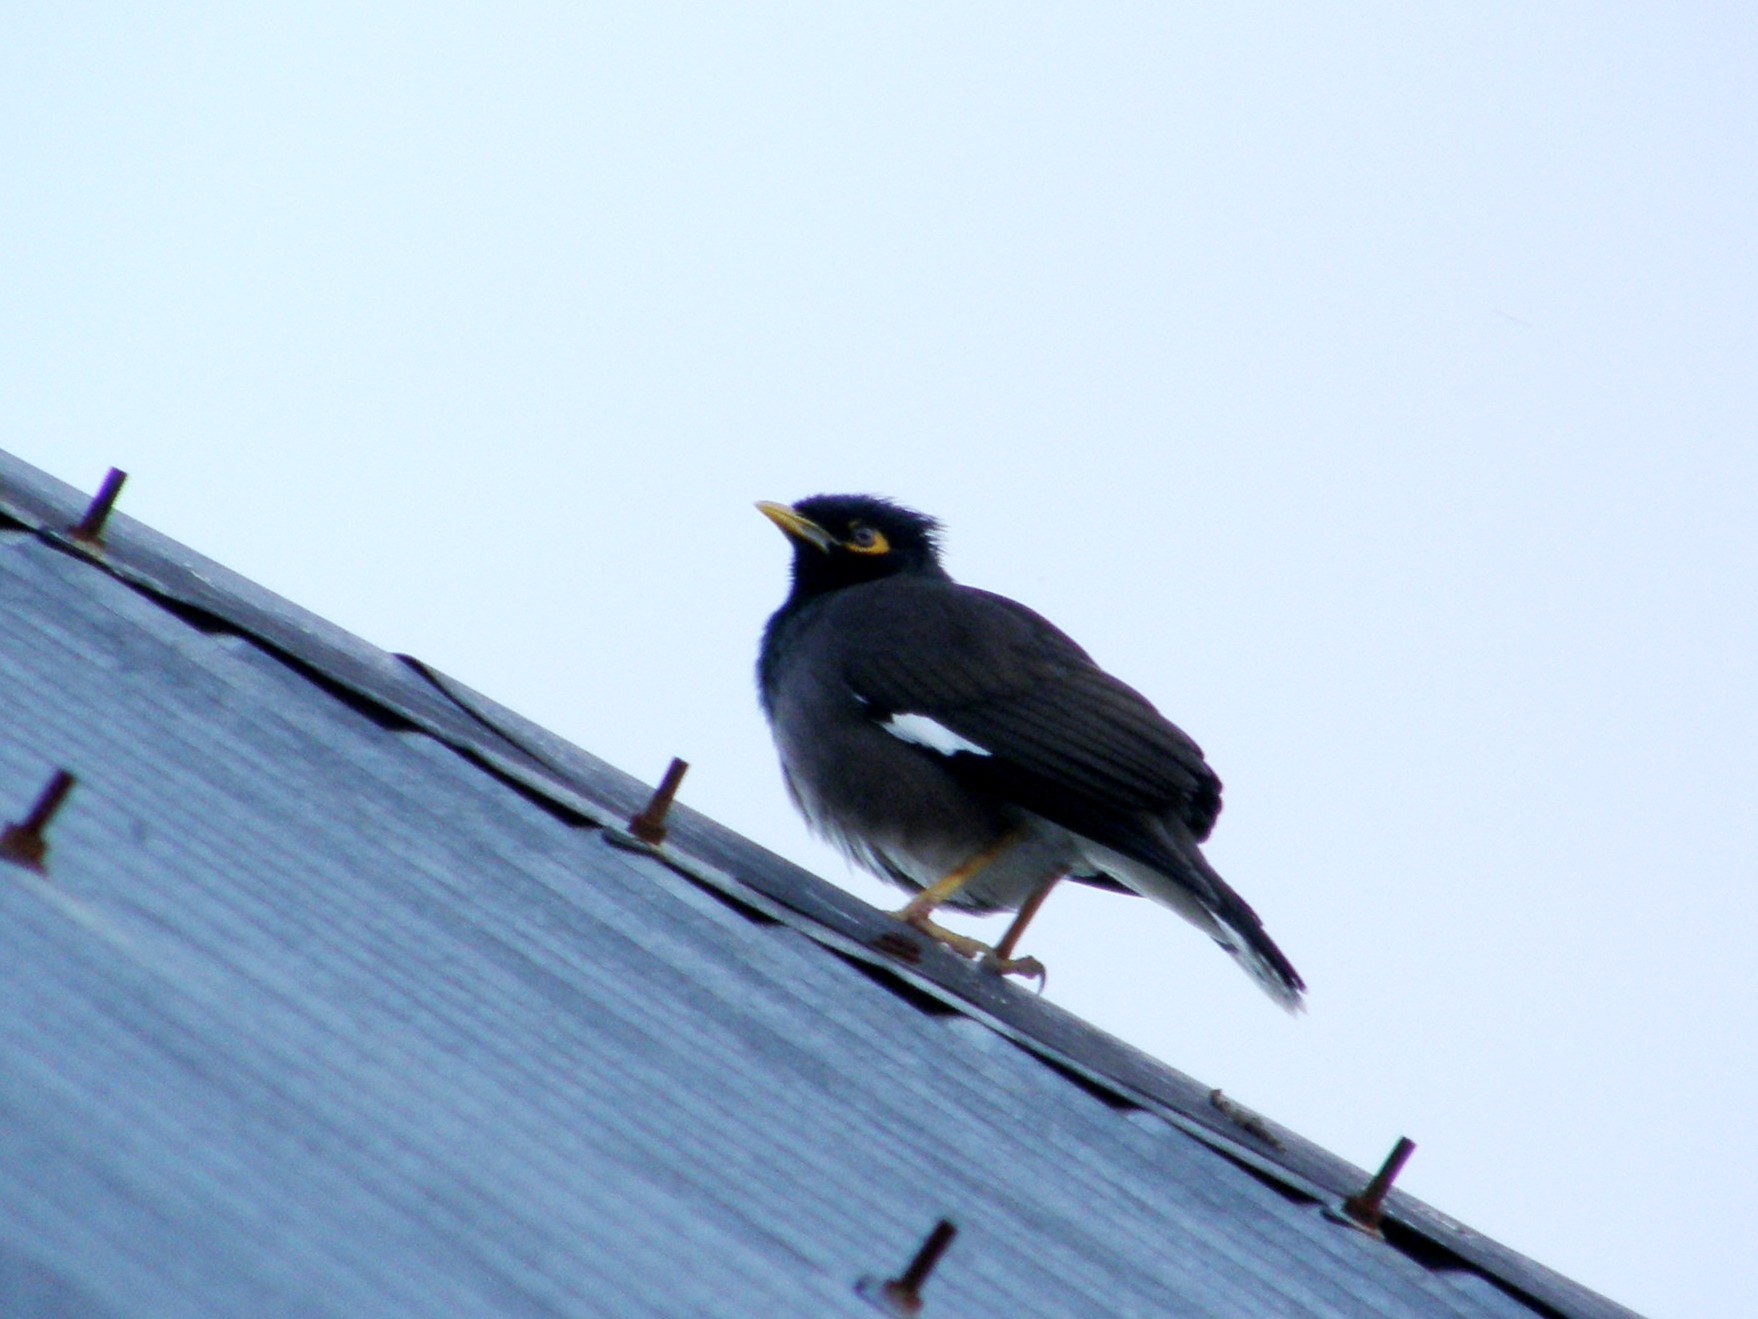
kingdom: Animalia
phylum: Chordata
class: Aves
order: Passeriformes
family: Sturnidae
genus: Acridotheres
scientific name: Acridotheres tristis
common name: Common myna
